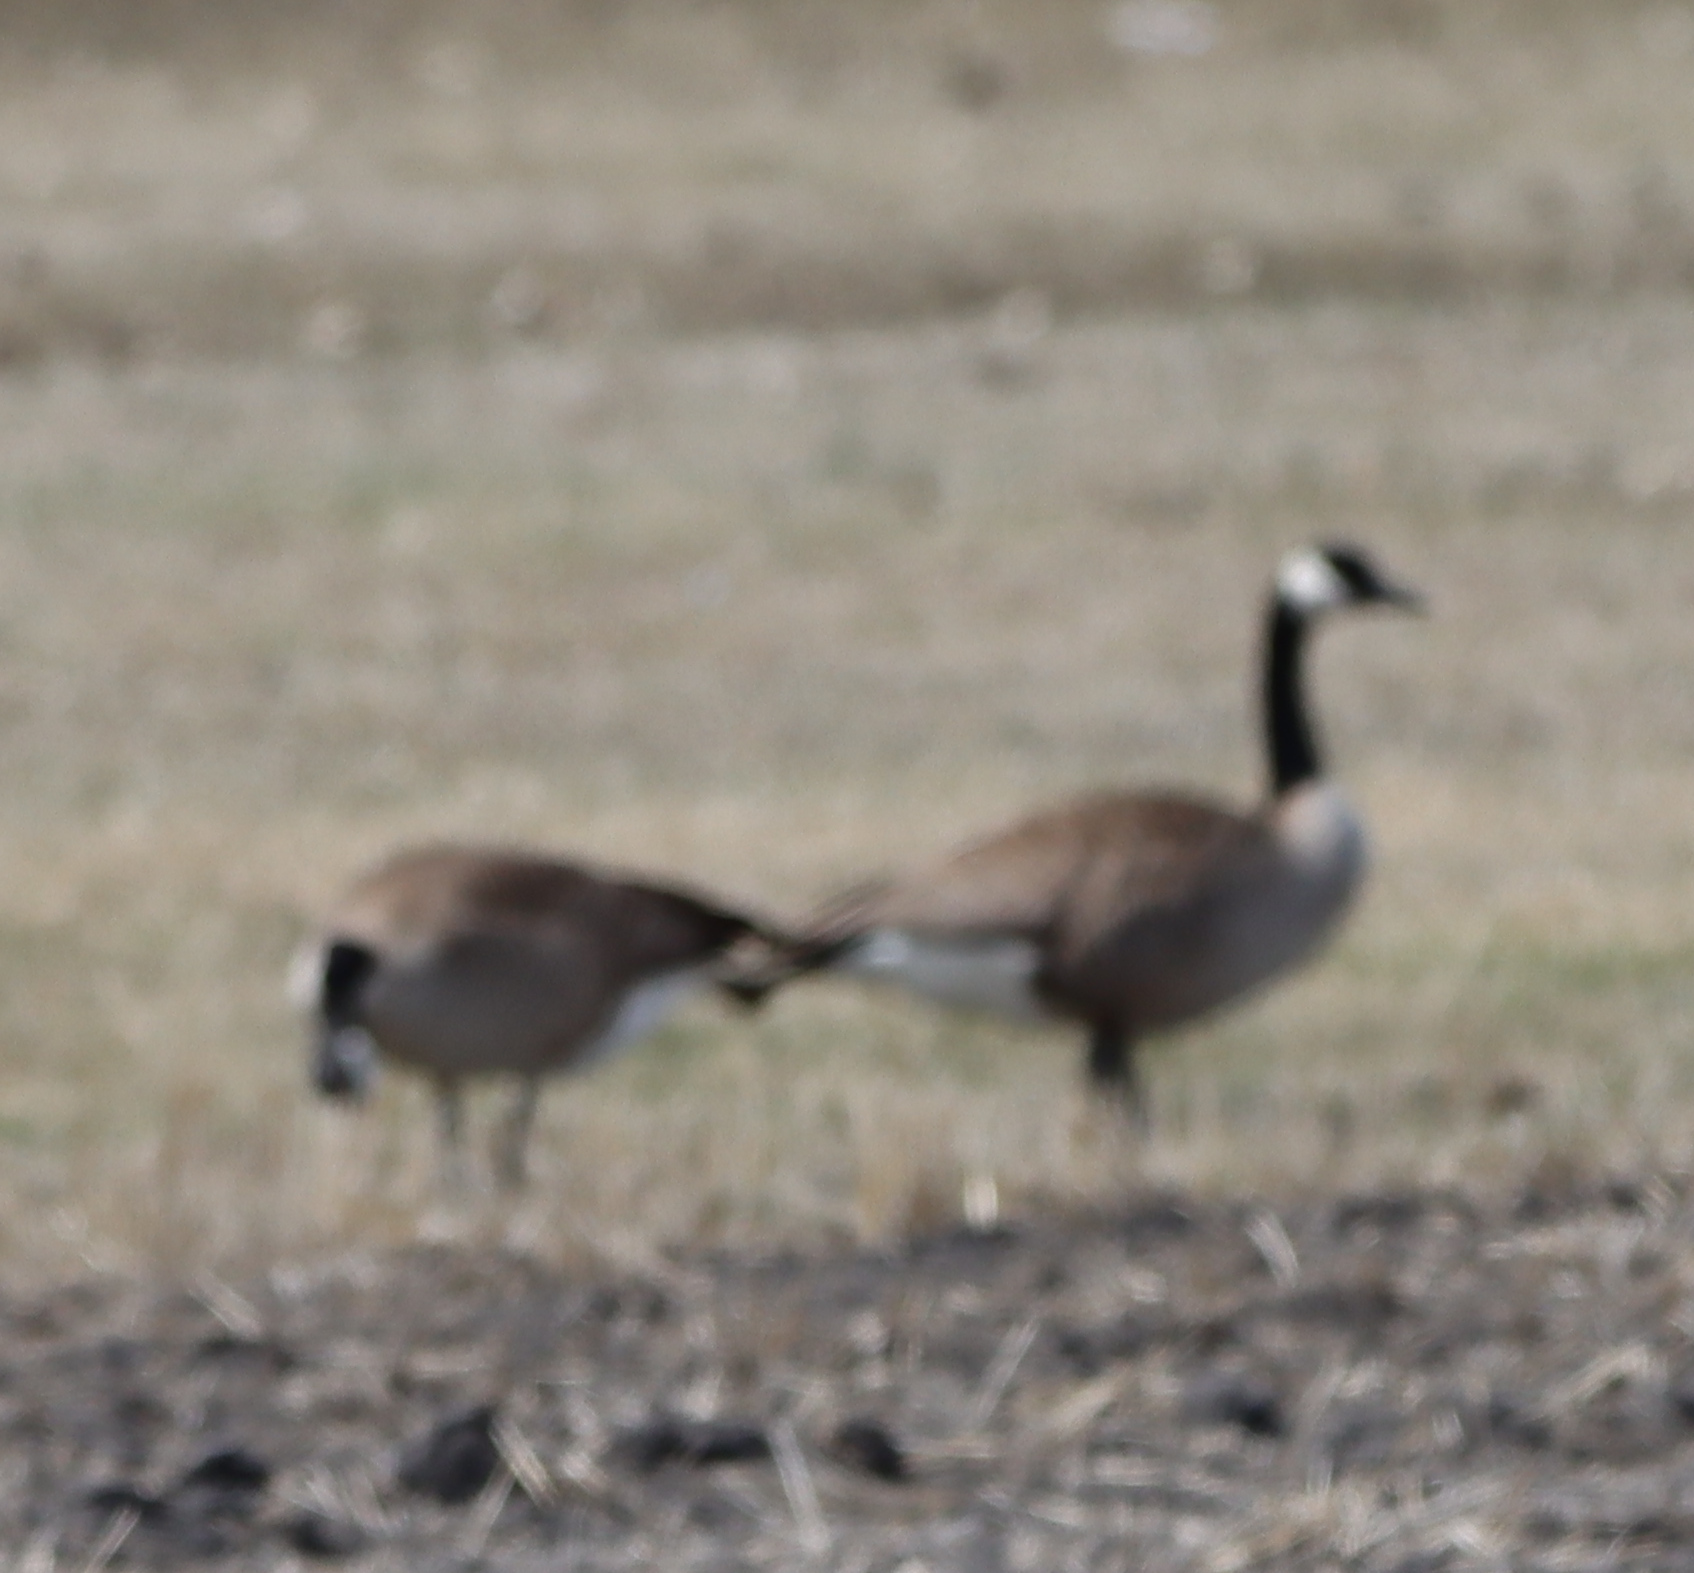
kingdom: Animalia
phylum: Chordata
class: Aves
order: Anseriformes
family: Anatidae
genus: Branta
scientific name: Branta canadensis
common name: Canada goose
